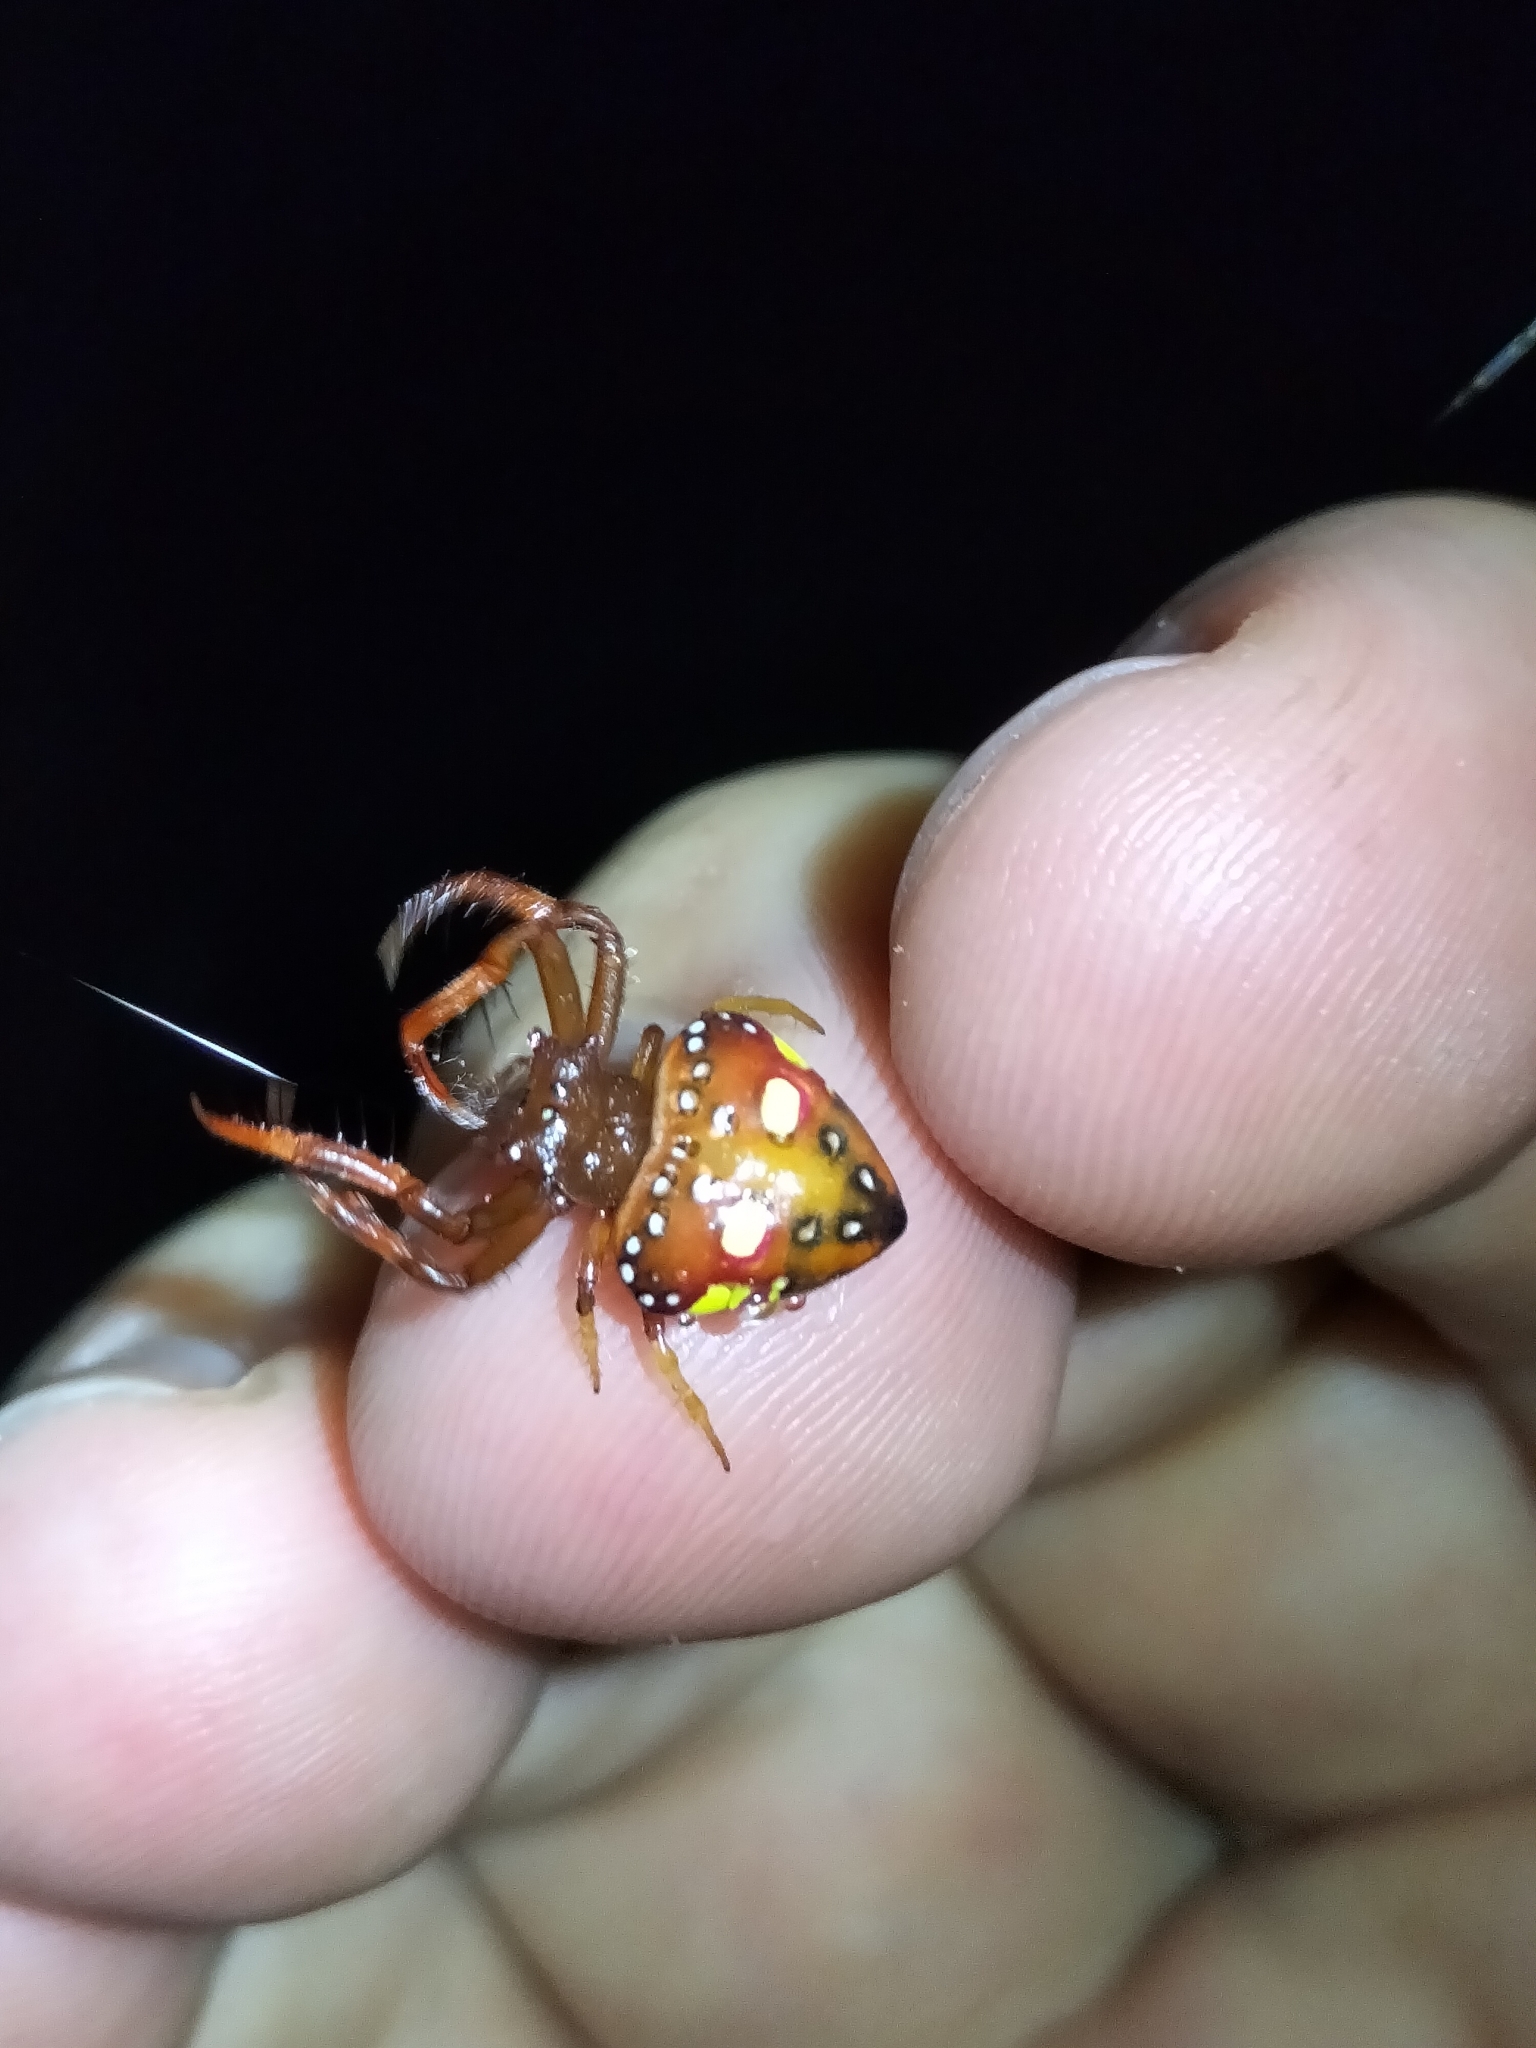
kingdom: Animalia
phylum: Arthropoda
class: Arachnida
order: Araneae
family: Arkyidae
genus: Arkys
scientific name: Arkys lancearius
